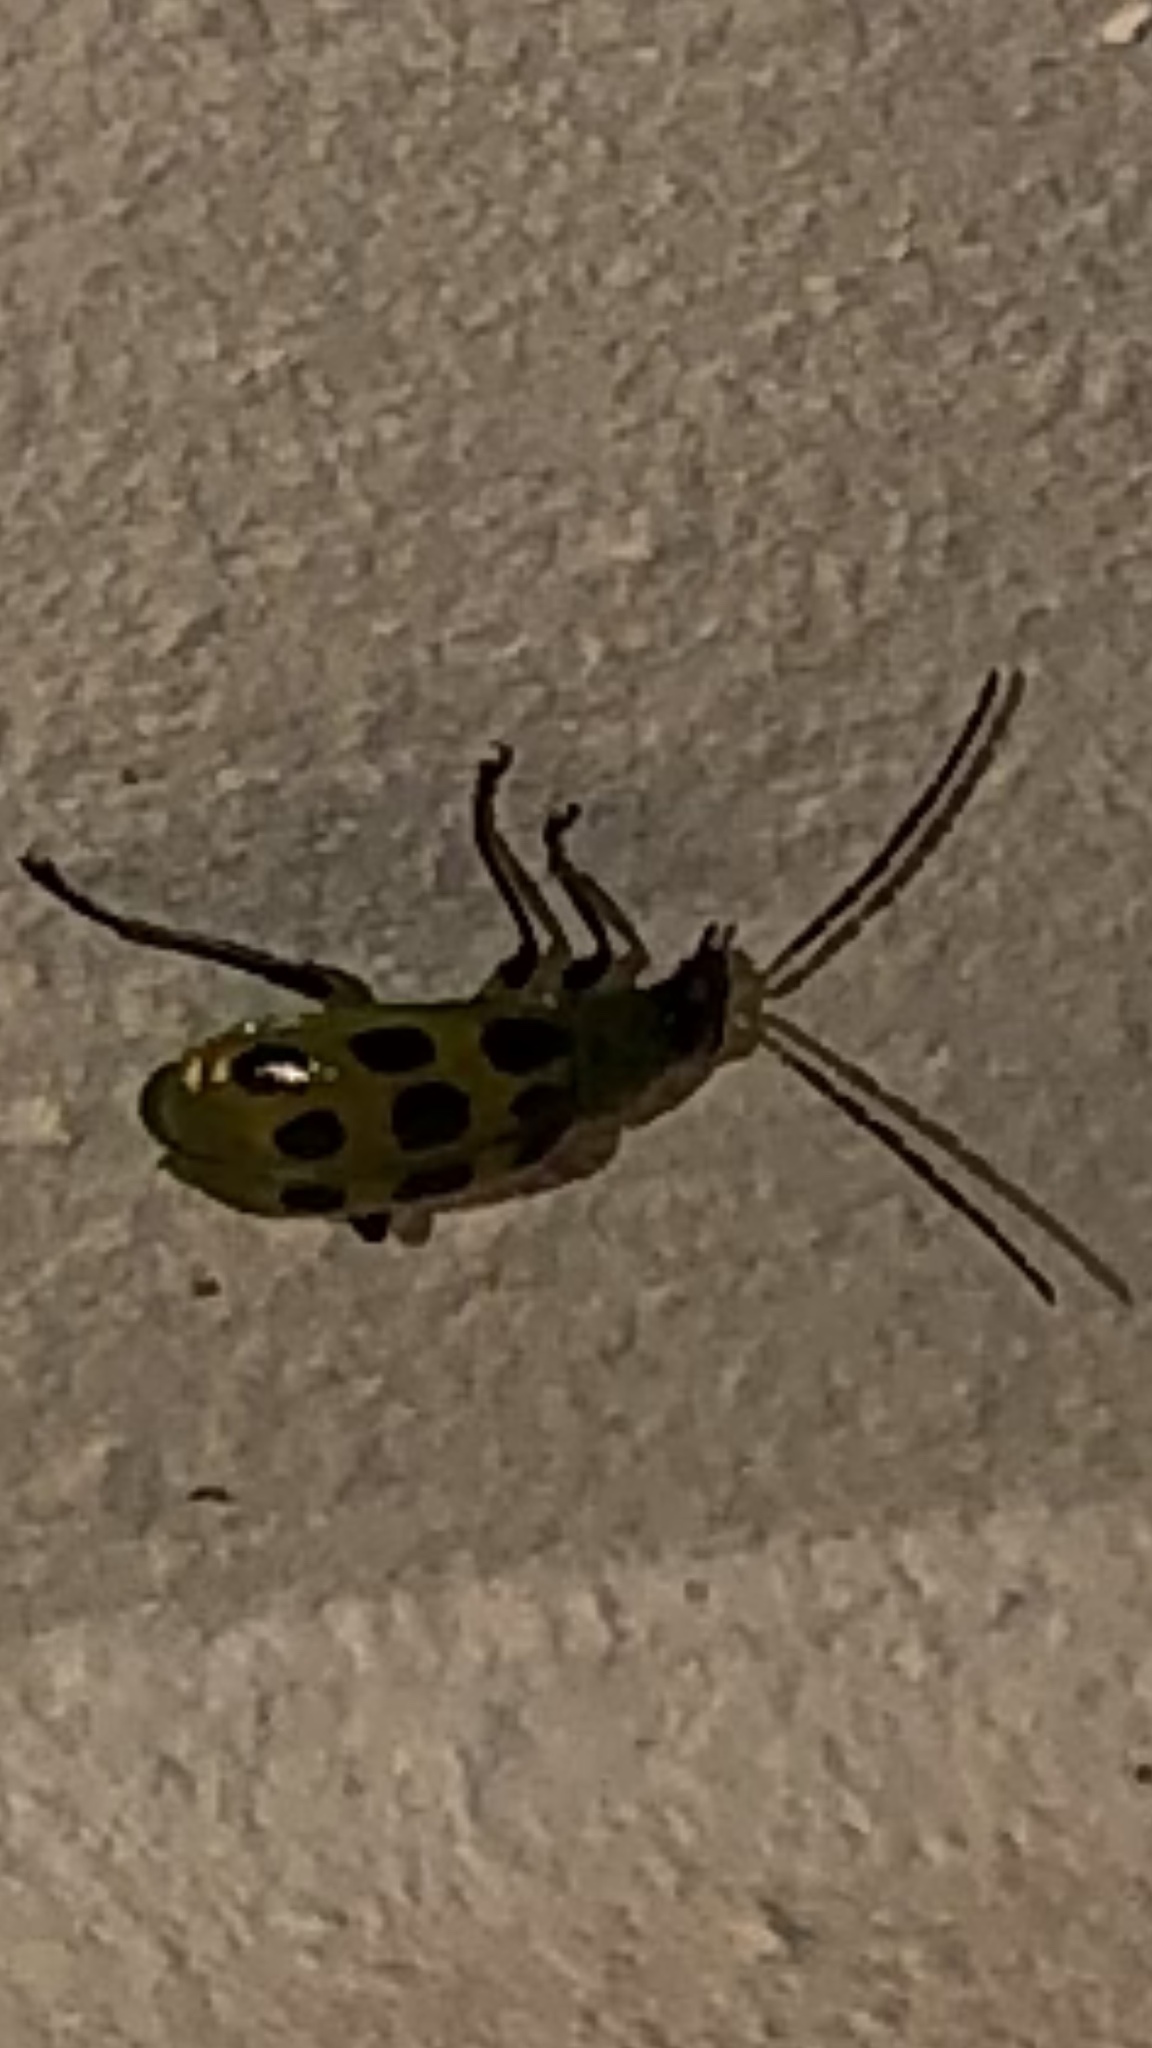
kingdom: Animalia
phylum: Arthropoda
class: Insecta
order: Coleoptera
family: Chrysomelidae
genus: Diabrotica
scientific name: Diabrotica undecimpunctata
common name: Spotted cucumber beetle
